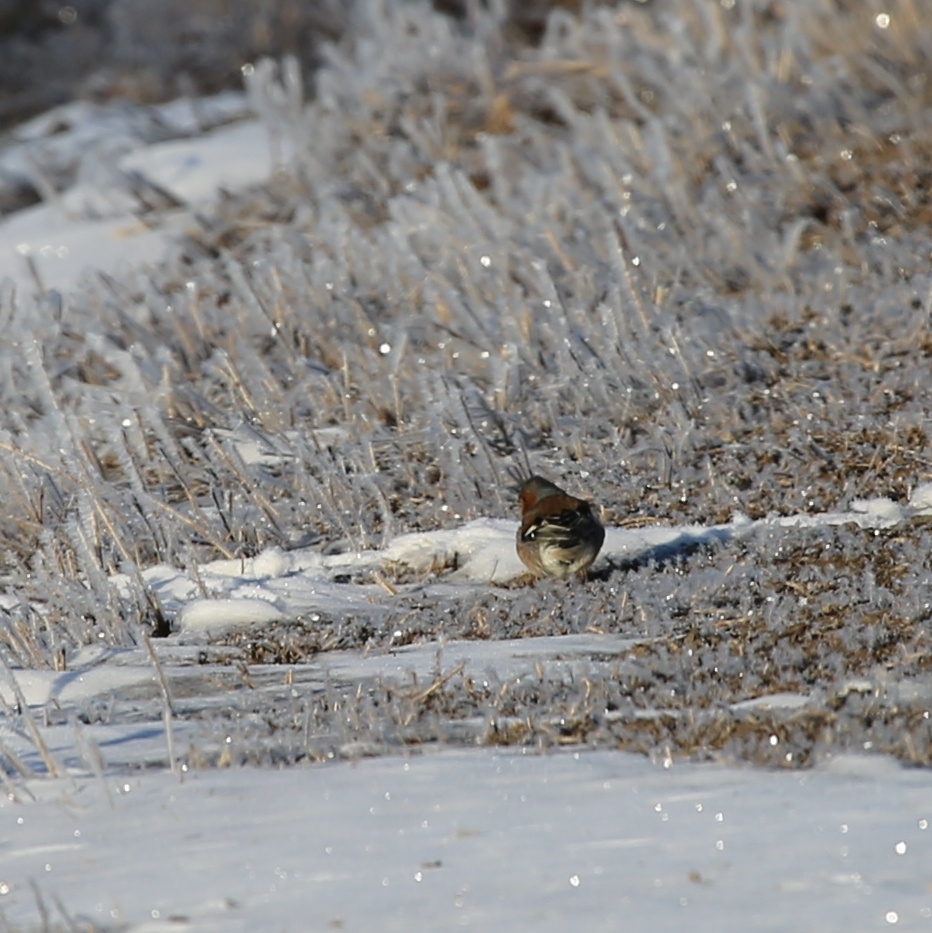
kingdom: Animalia
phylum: Chordata
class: Aves
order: Passeriformes
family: Fringillidae
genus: Fringilla
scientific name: Fringilla coelebs
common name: Common chaffinch
